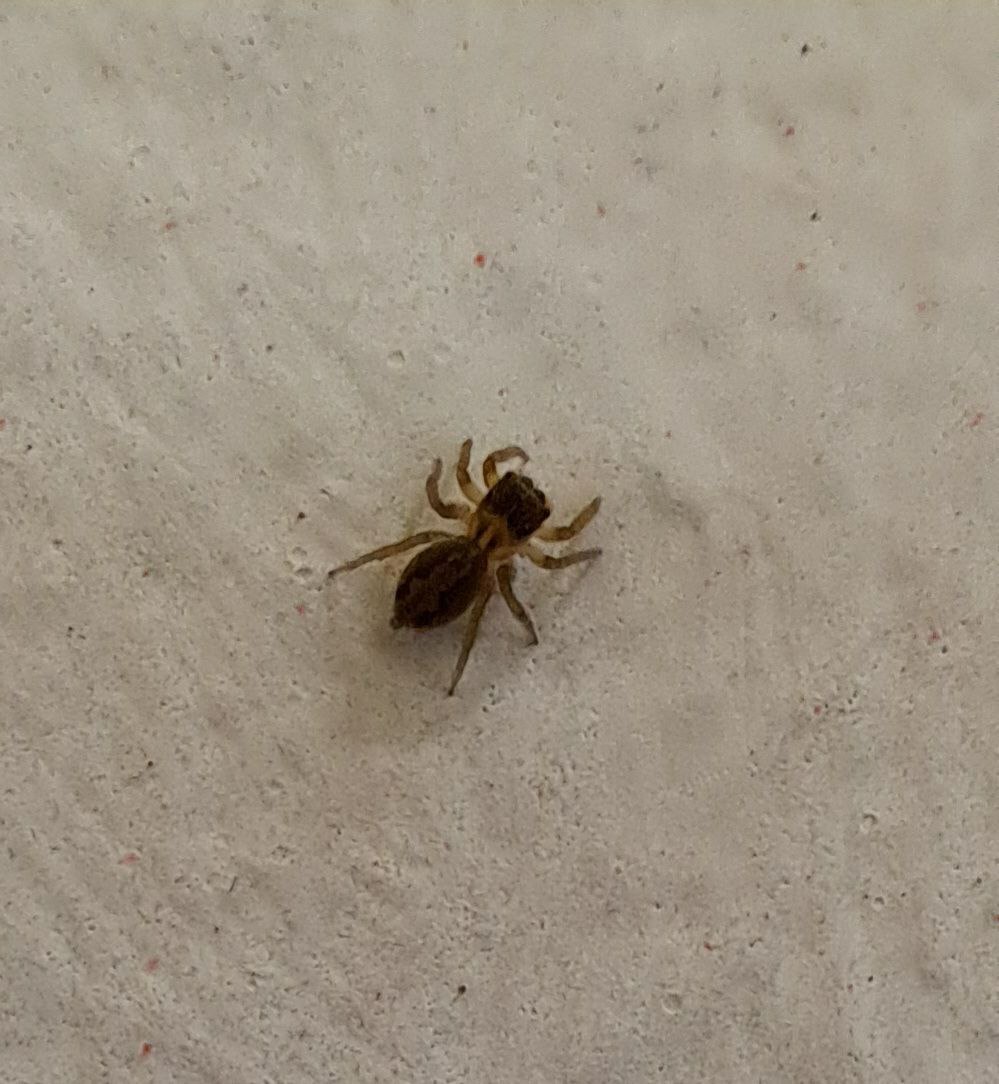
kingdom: Animalia
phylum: Arthropoda
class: Arachnida
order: Araneae
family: Salticidae
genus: Hasarius
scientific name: Hasarius adansoni
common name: Jumping spider
